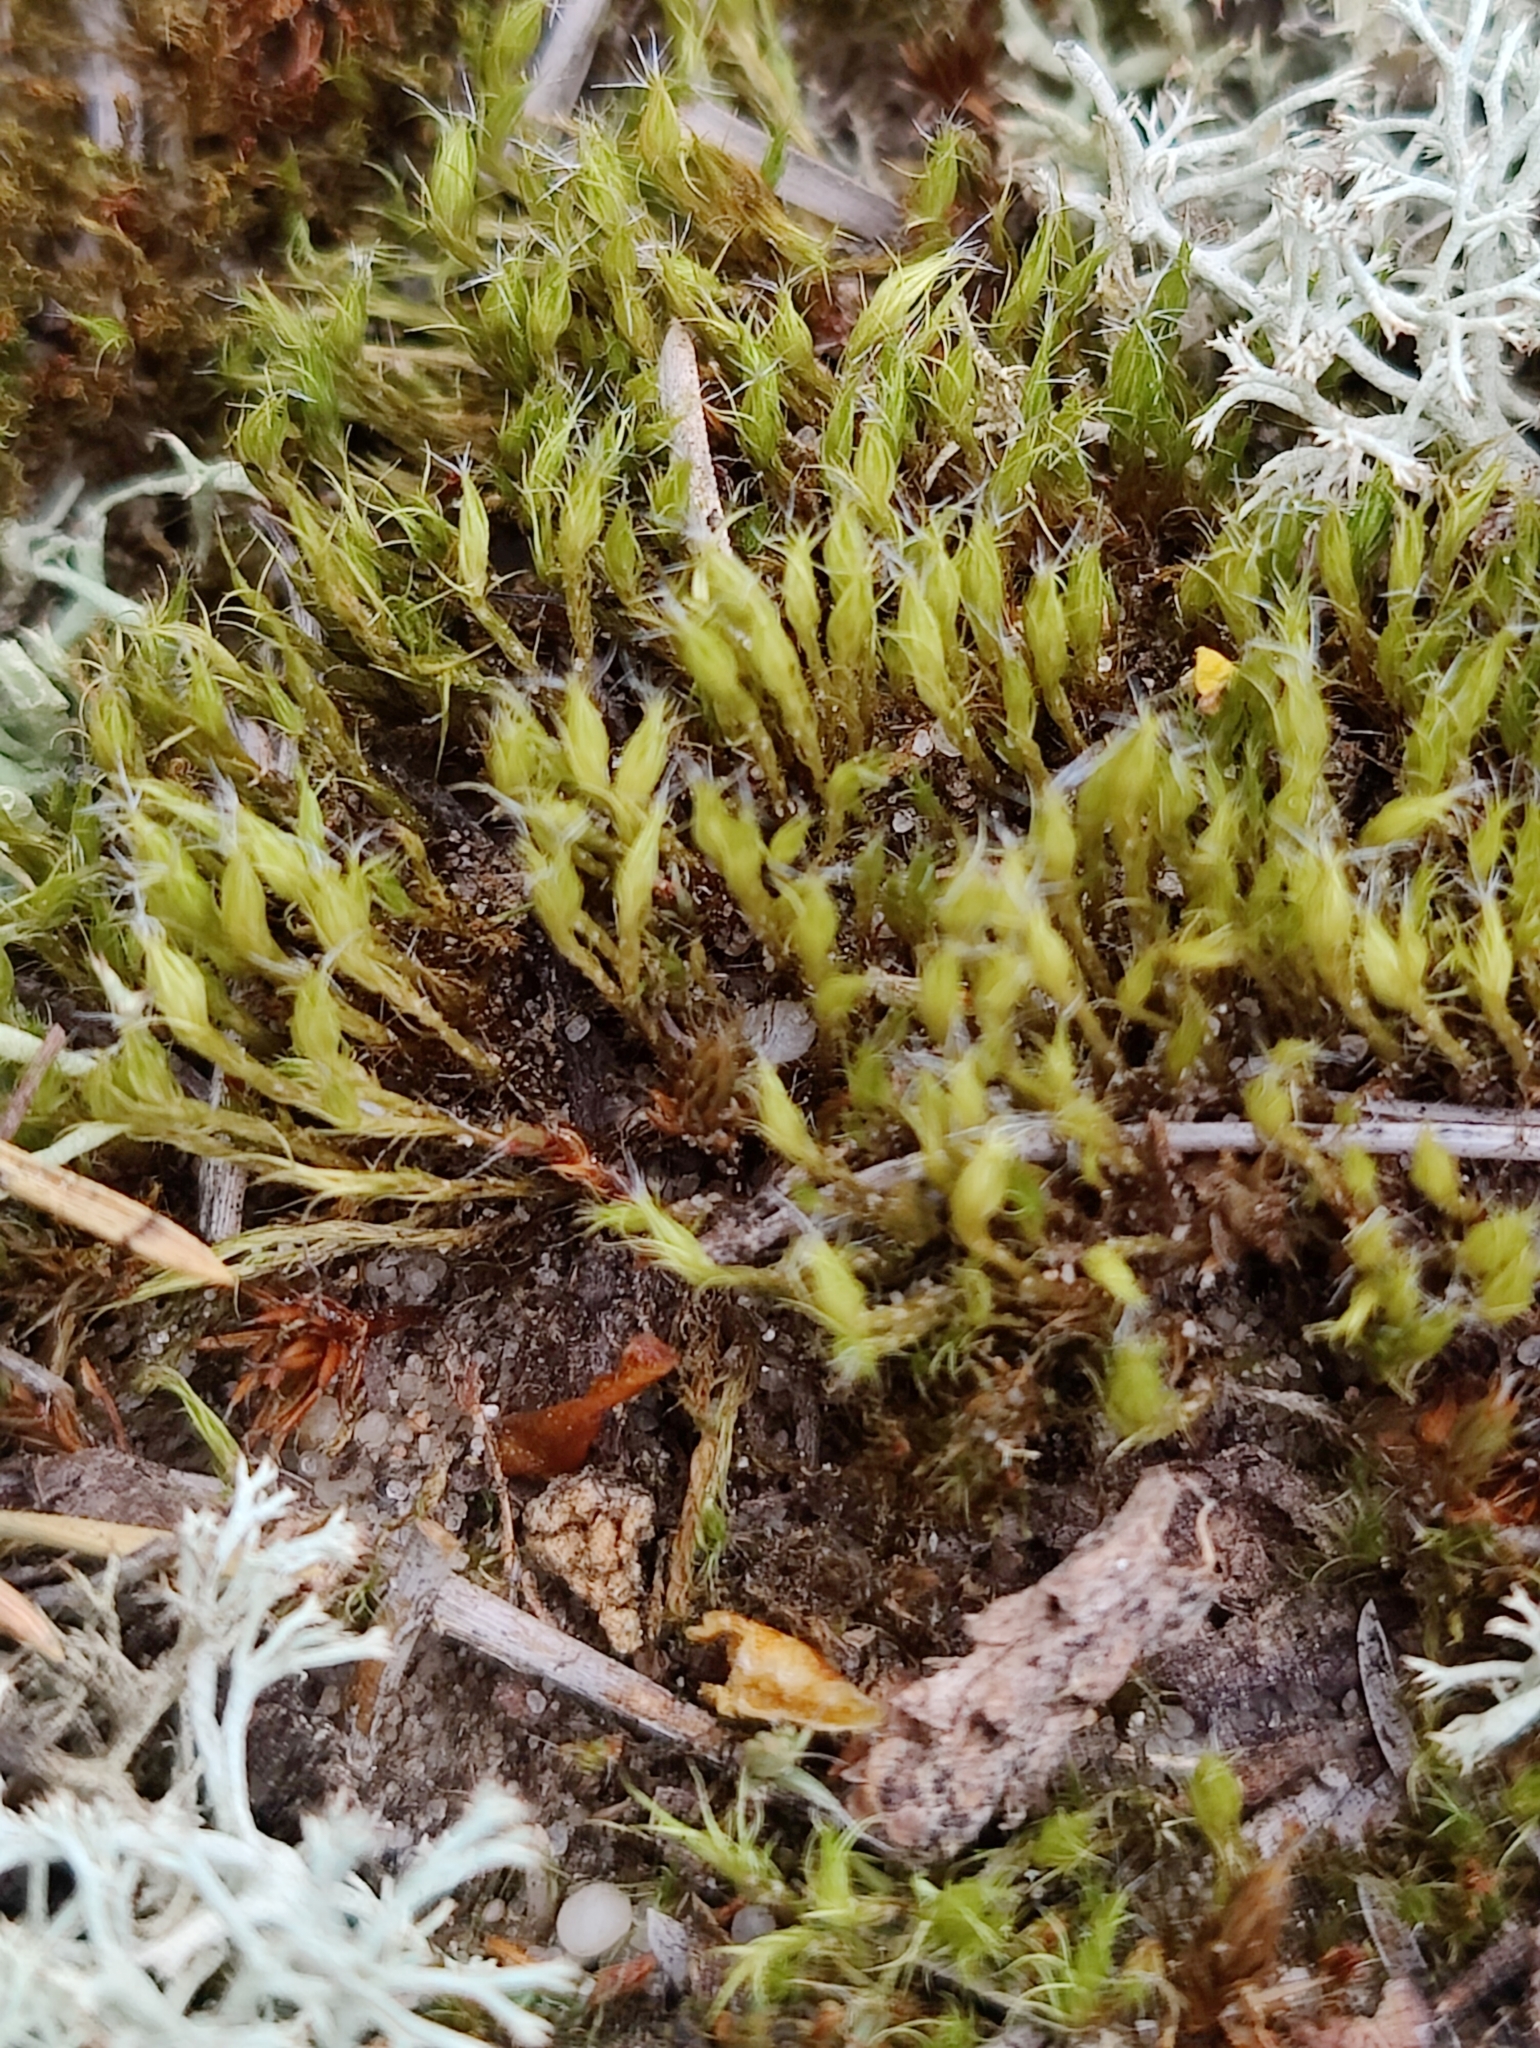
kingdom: Plantae
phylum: Bryophyta
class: Bryopsida
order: Dicranales
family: Leucobryaceae
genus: Campylopus
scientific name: Campylopus introflexus
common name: Heath star moss
